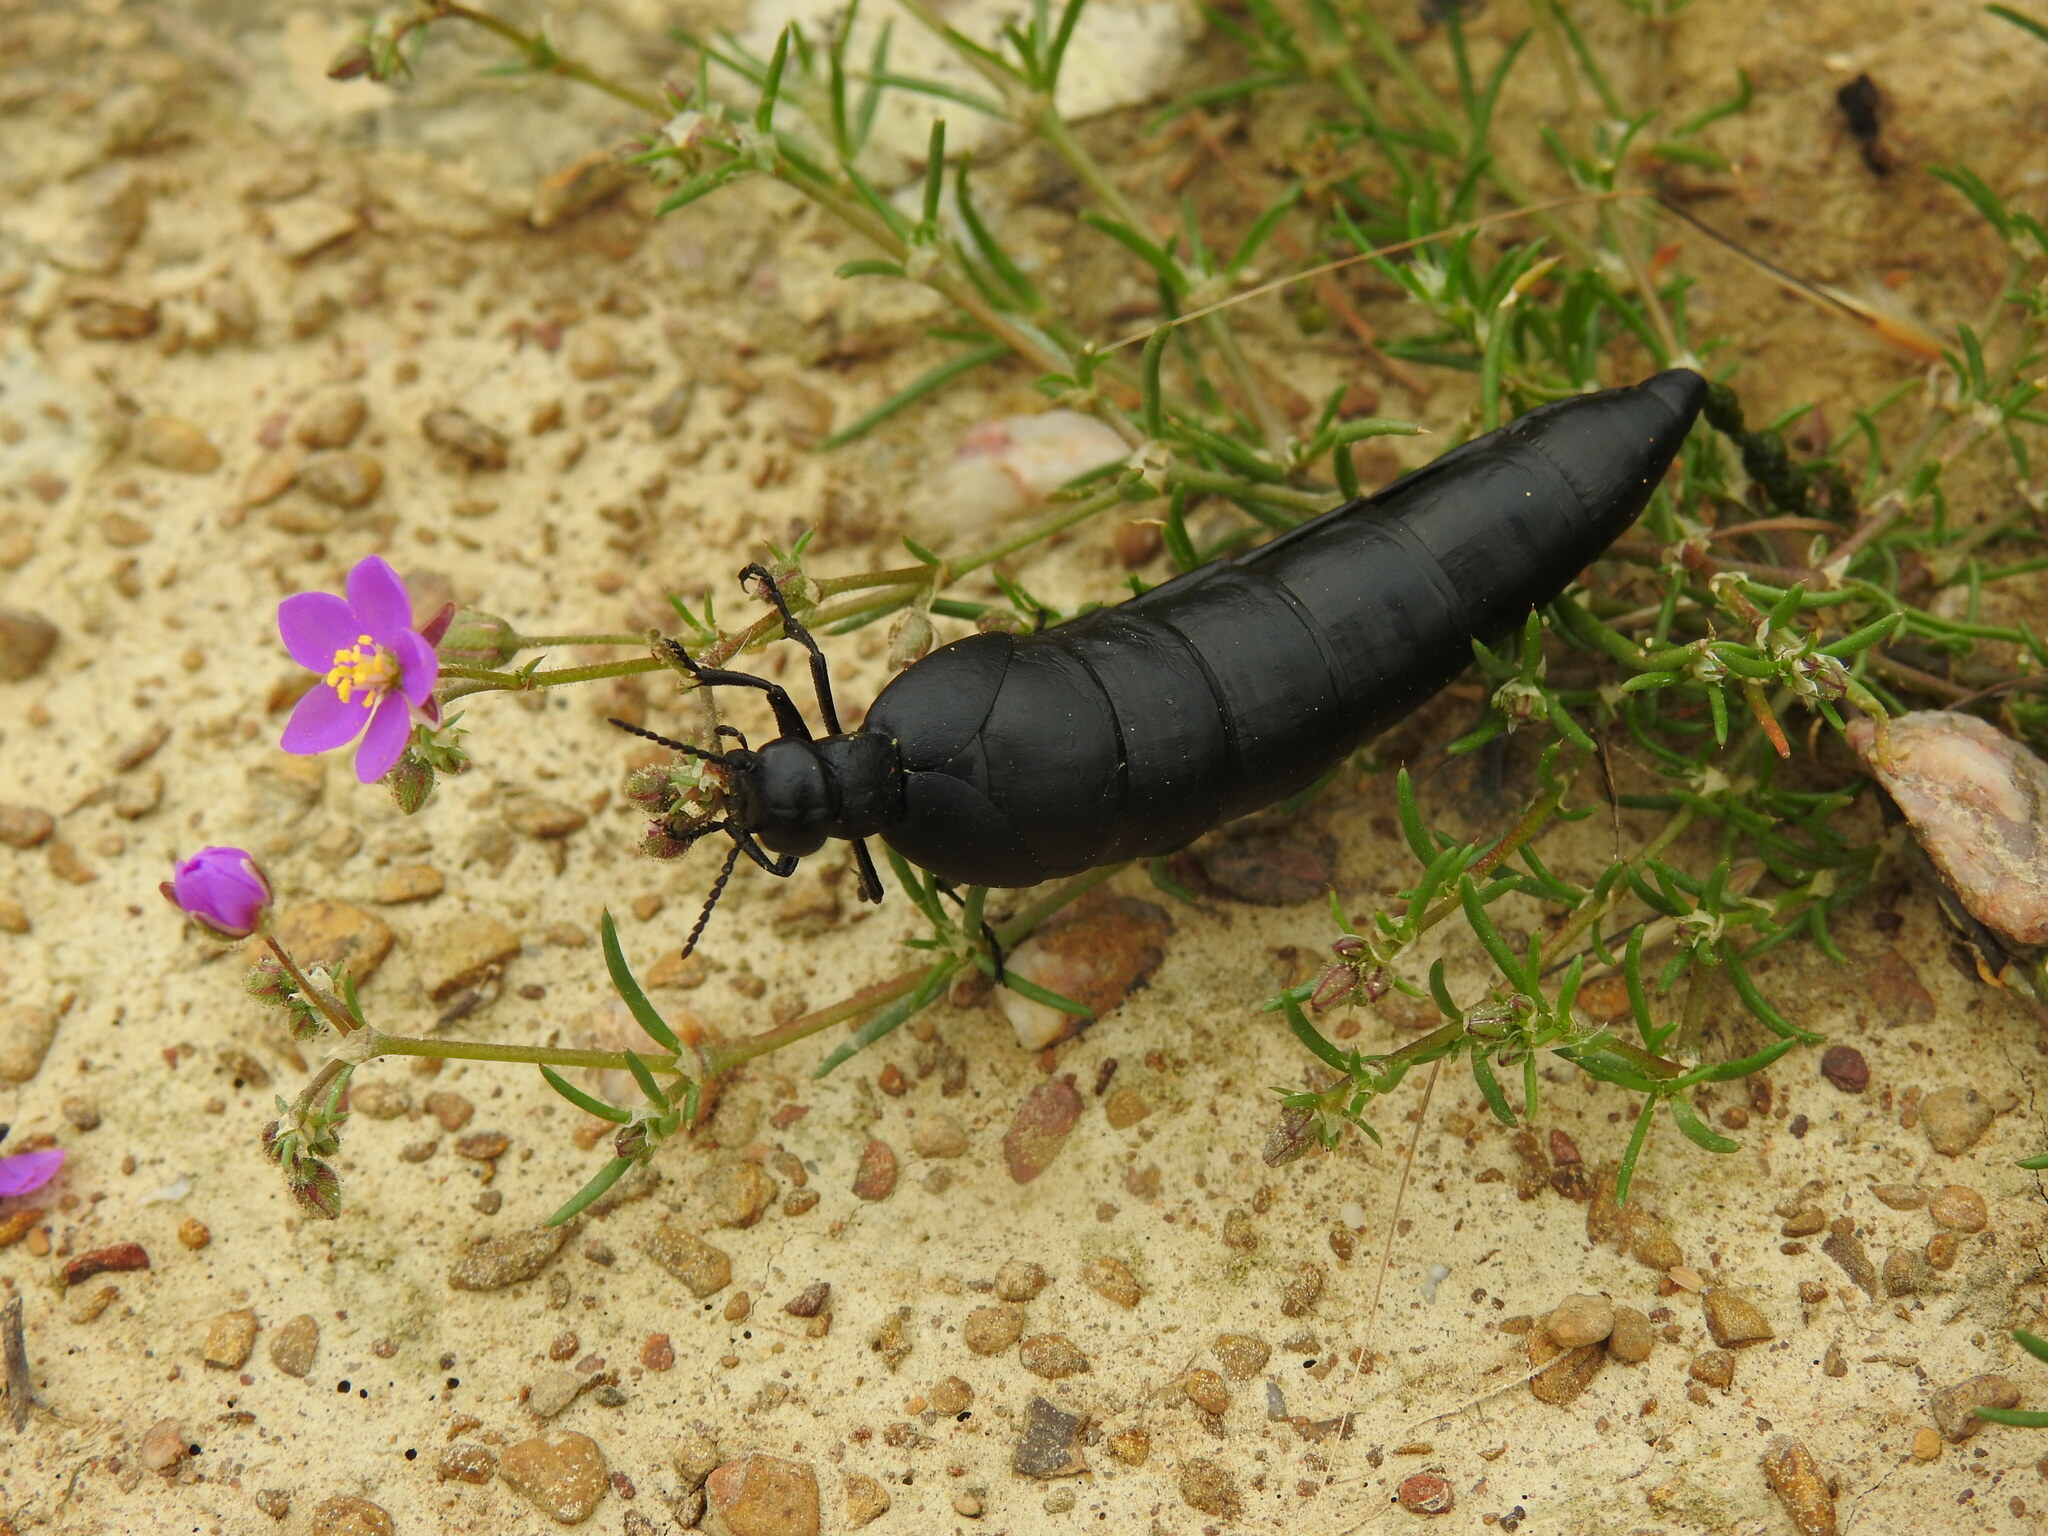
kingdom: Animalia
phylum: Arthropoda
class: Insecta
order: Coleoptera
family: Meloidae
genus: Berberomeloe
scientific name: Berberomeloe castuo
